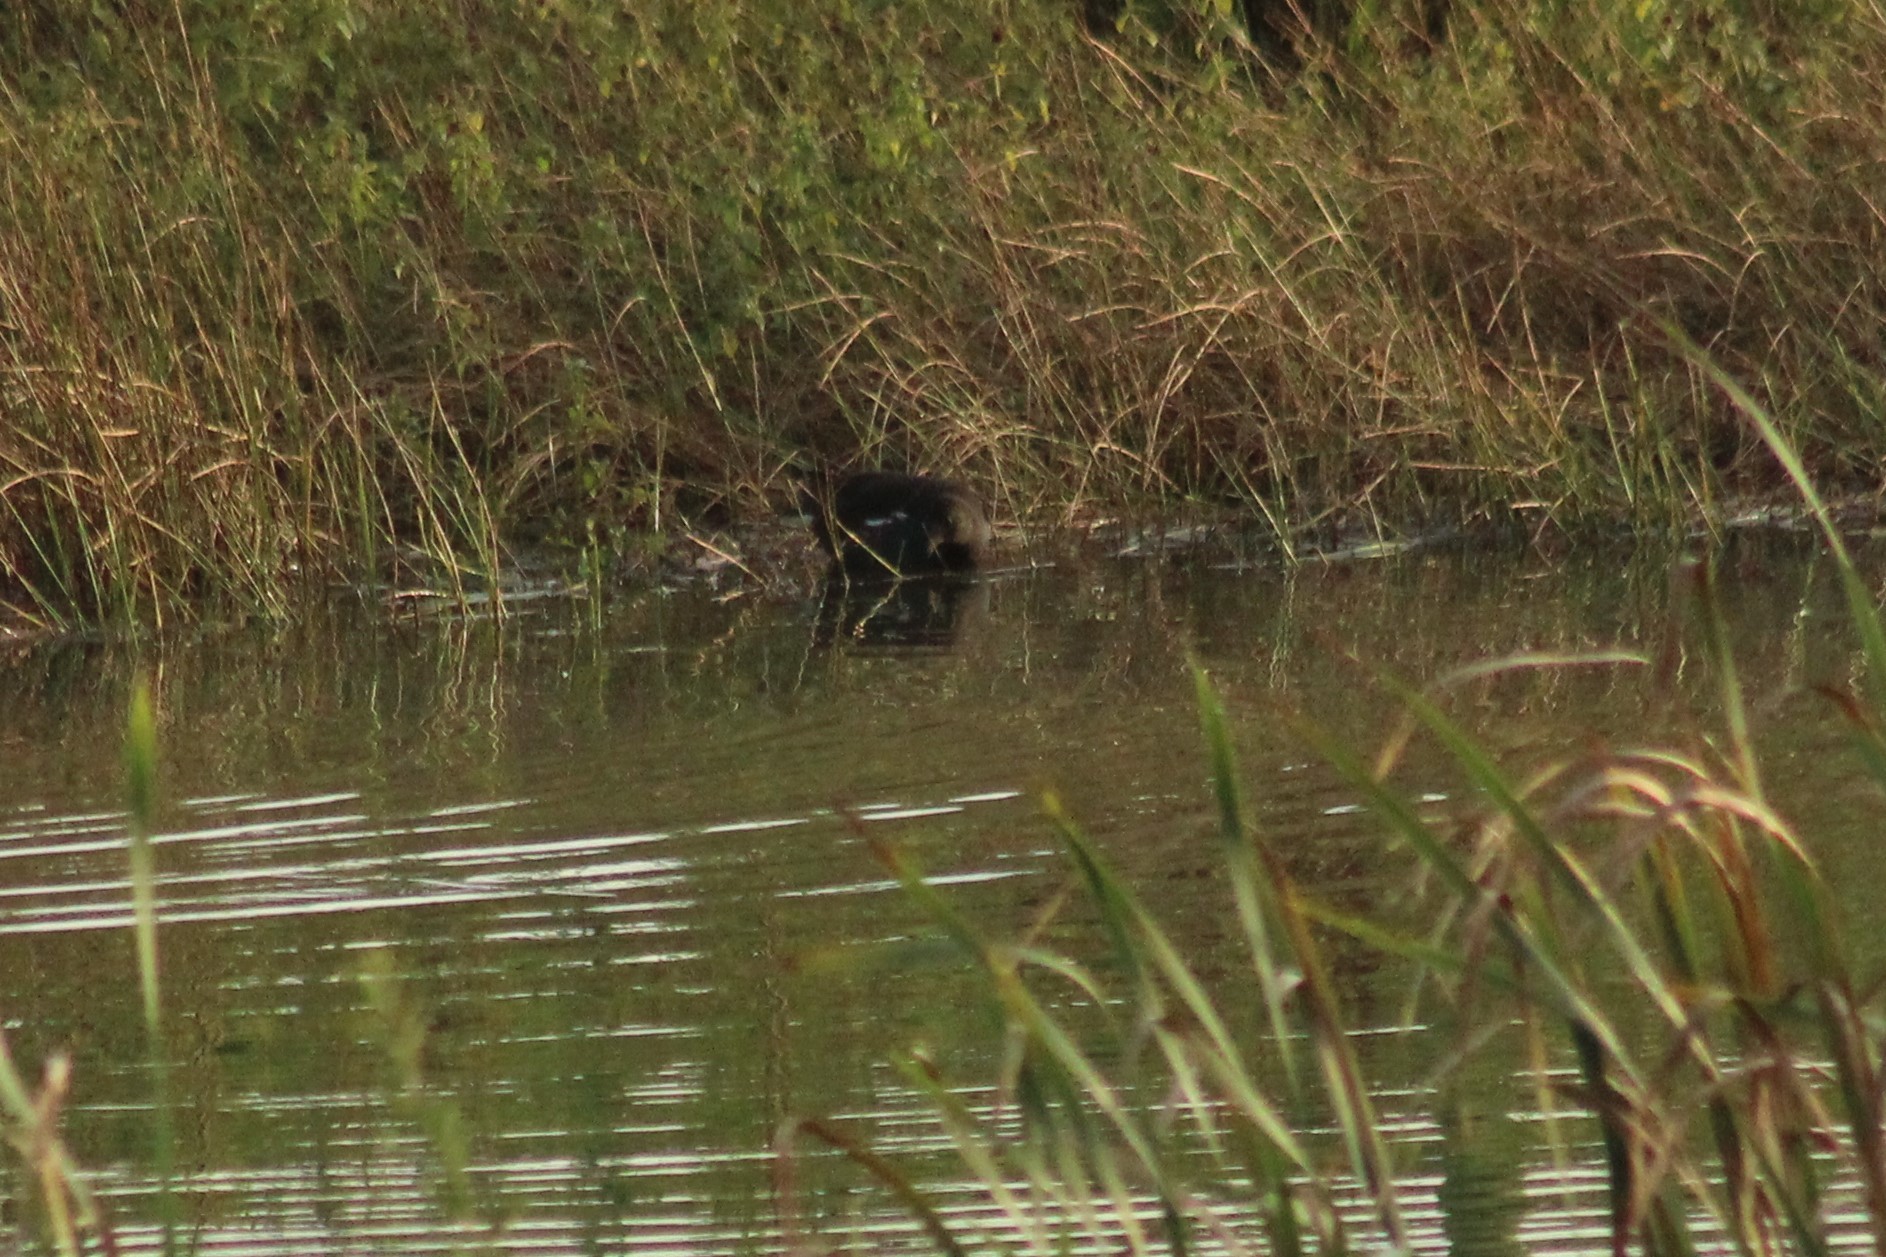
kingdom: Animalia
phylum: Chordata
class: Aves
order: Gruiformes
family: Rallidae
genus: Gallinula
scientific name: Gallinula chloropus
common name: Common moorhen
